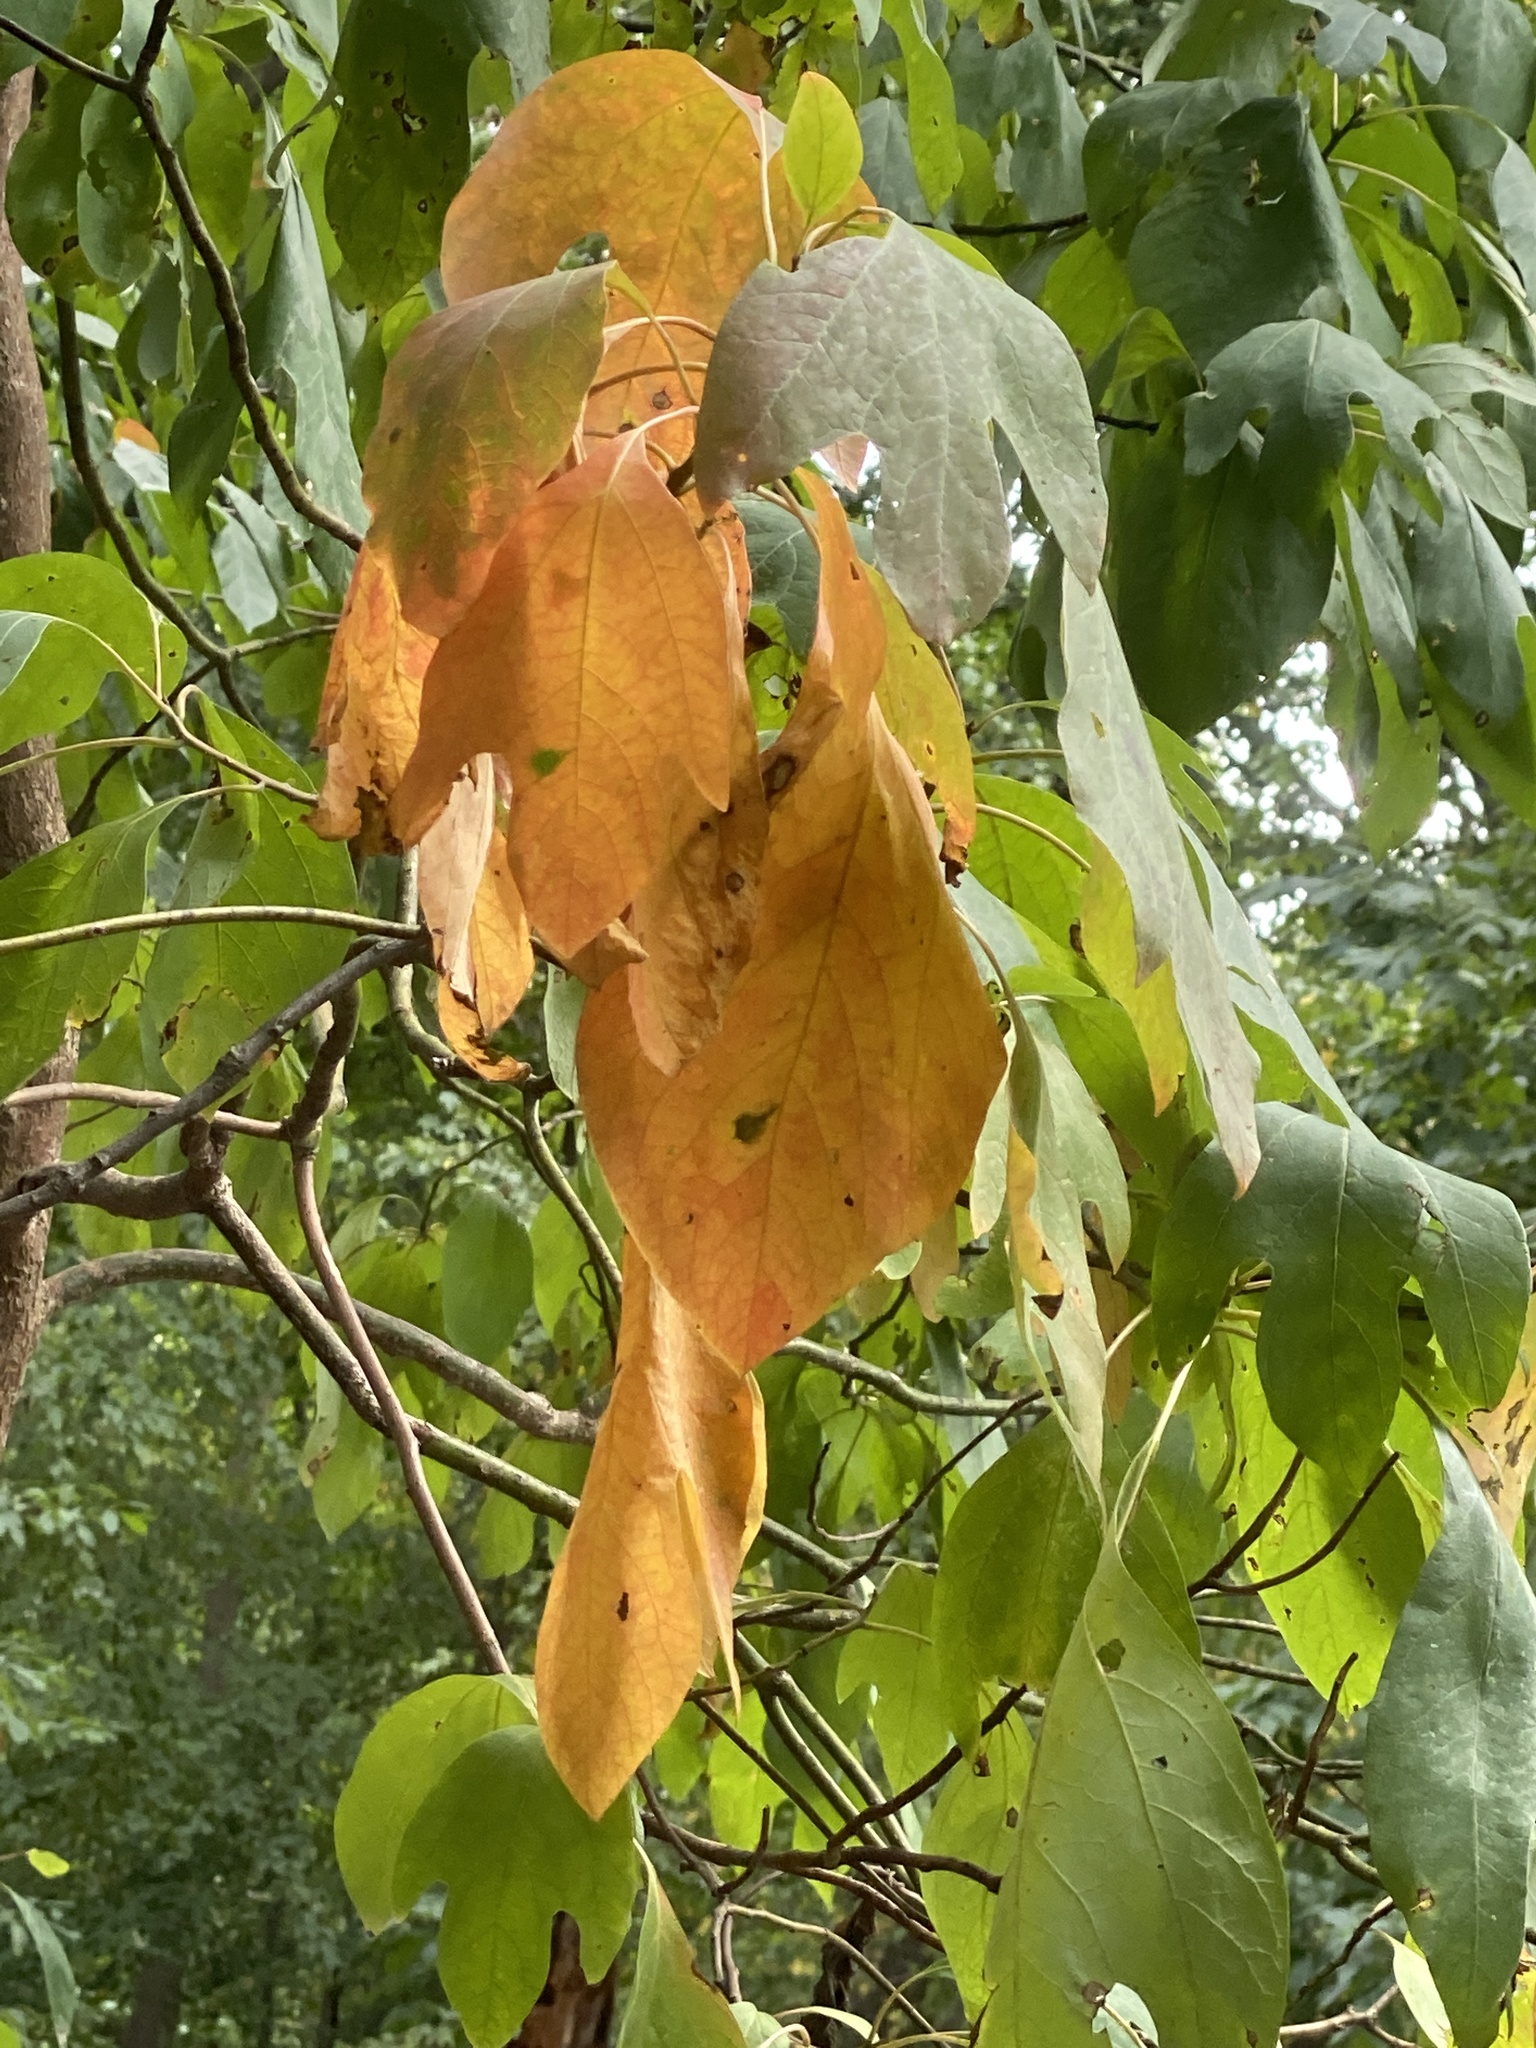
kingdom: Plantae
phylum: Tracheophyta
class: Magnoliopsida
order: Laurales
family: Lauraceae
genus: Sassafras
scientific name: Sassafras albidum
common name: Sassafras
